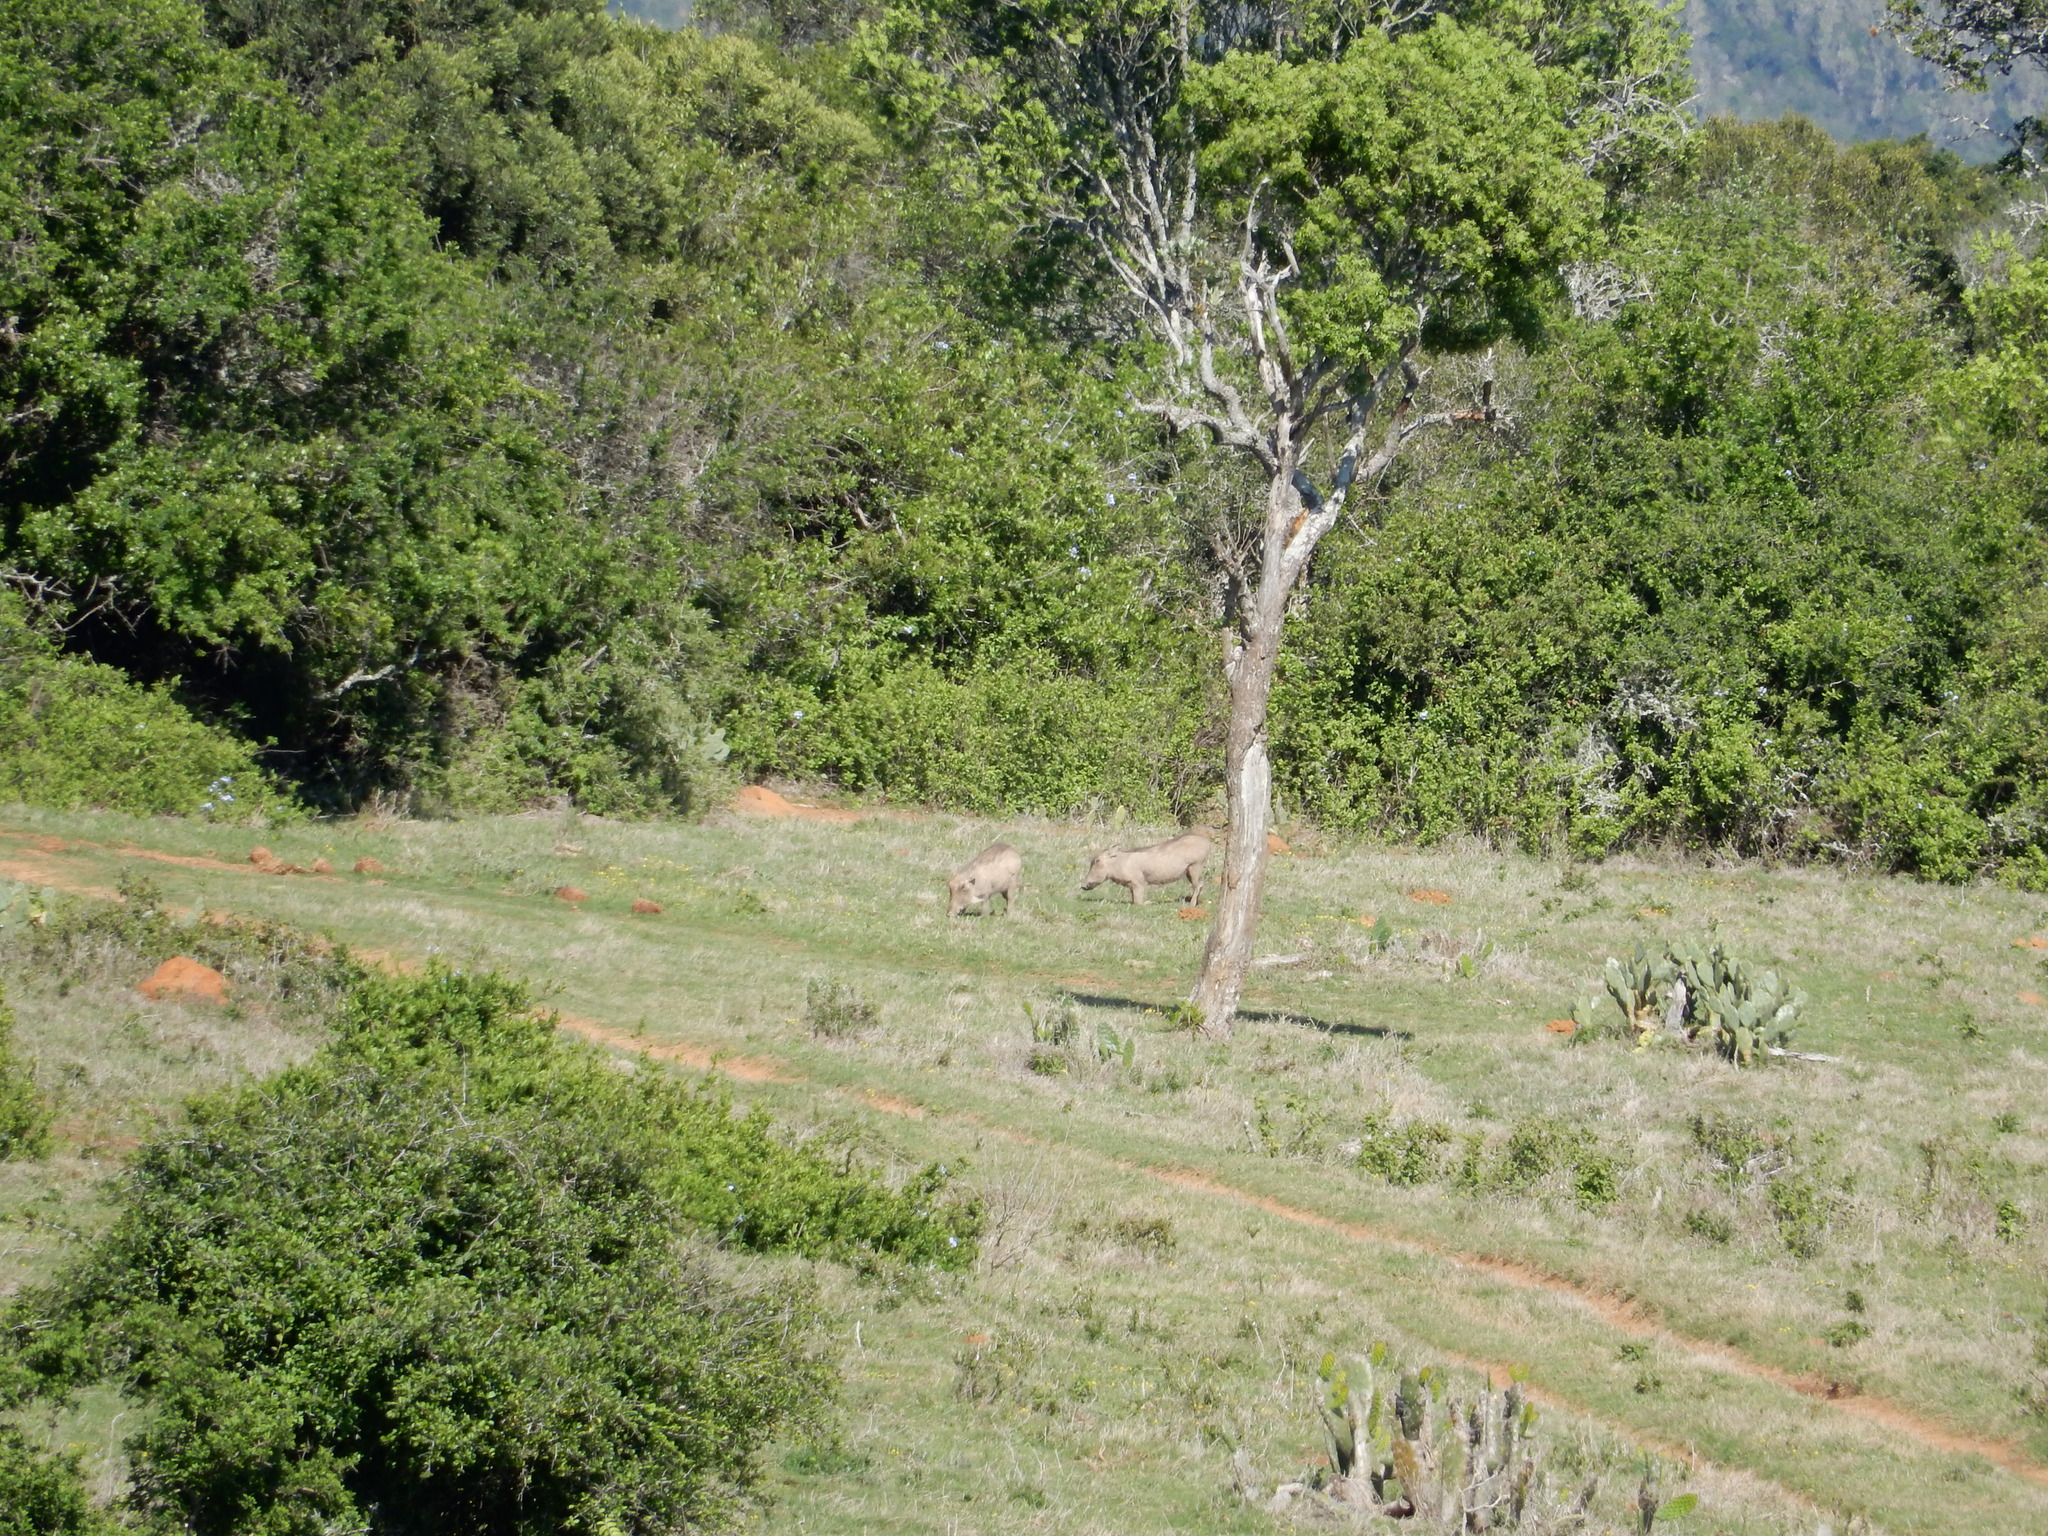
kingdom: Animalia
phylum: Chordata
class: Mammalia
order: Artiodactyla
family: Suidae
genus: Phacochoerus
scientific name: Phacochoerus africanus
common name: Common warthog
